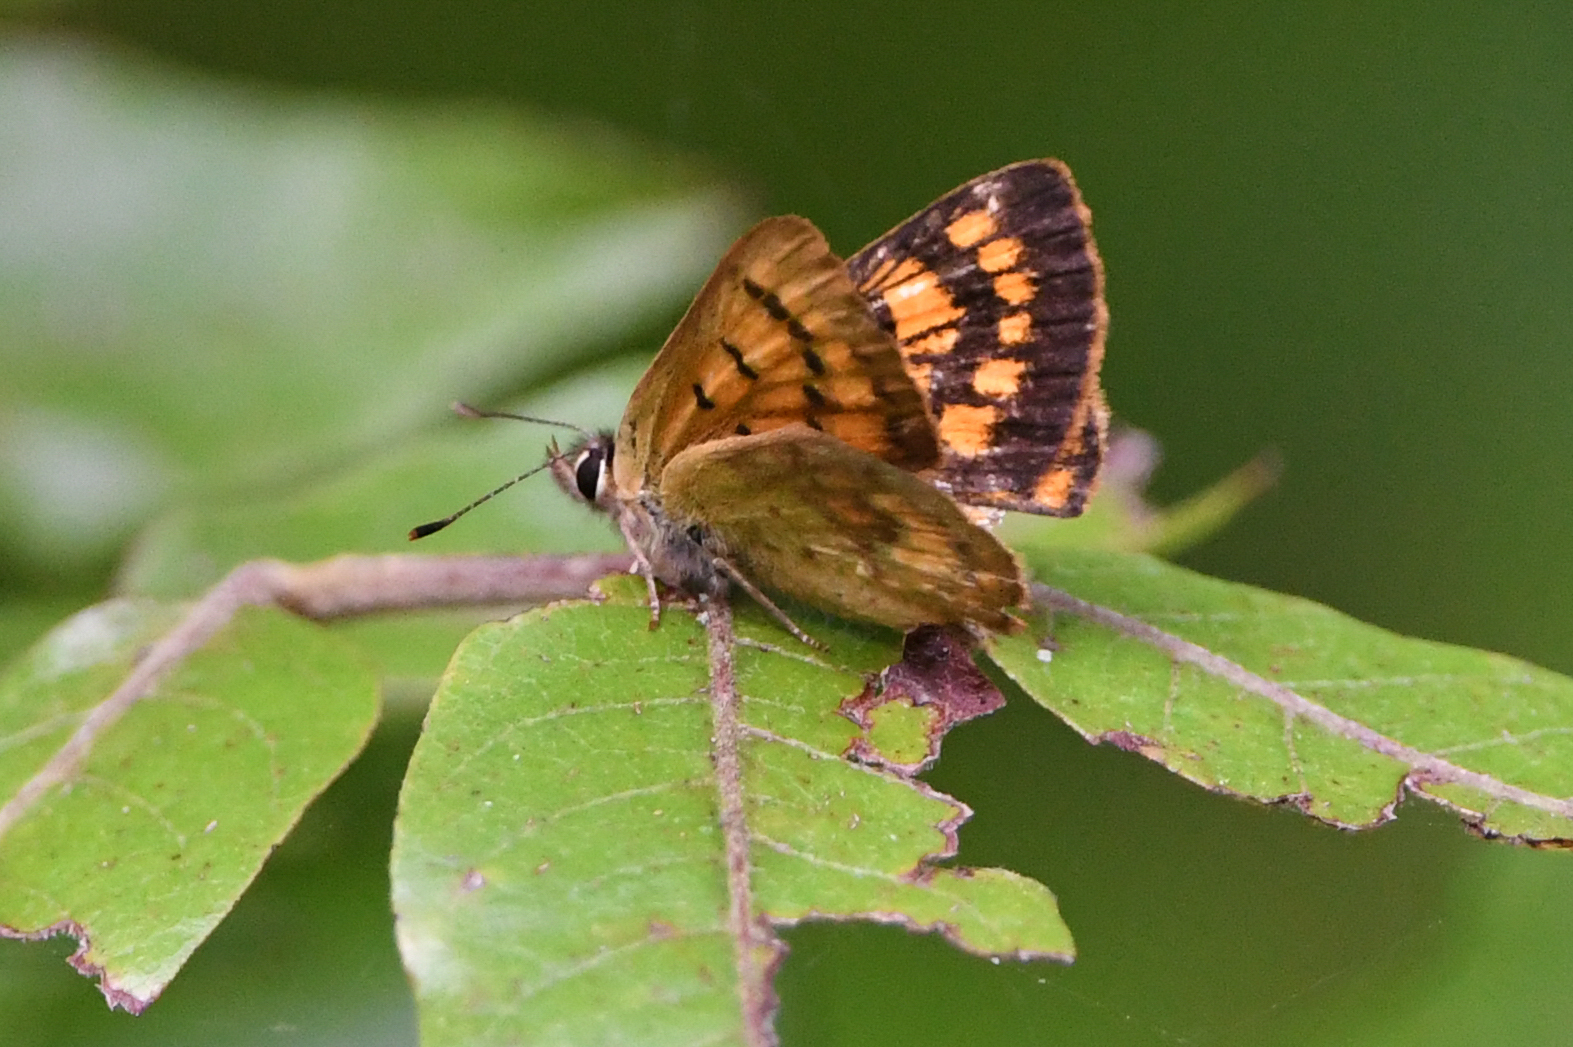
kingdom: Animalia
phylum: Arthropoda
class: Insecta
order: Lepidoptera
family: Lycaenidae
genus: Lycaena
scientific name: Lycaena
